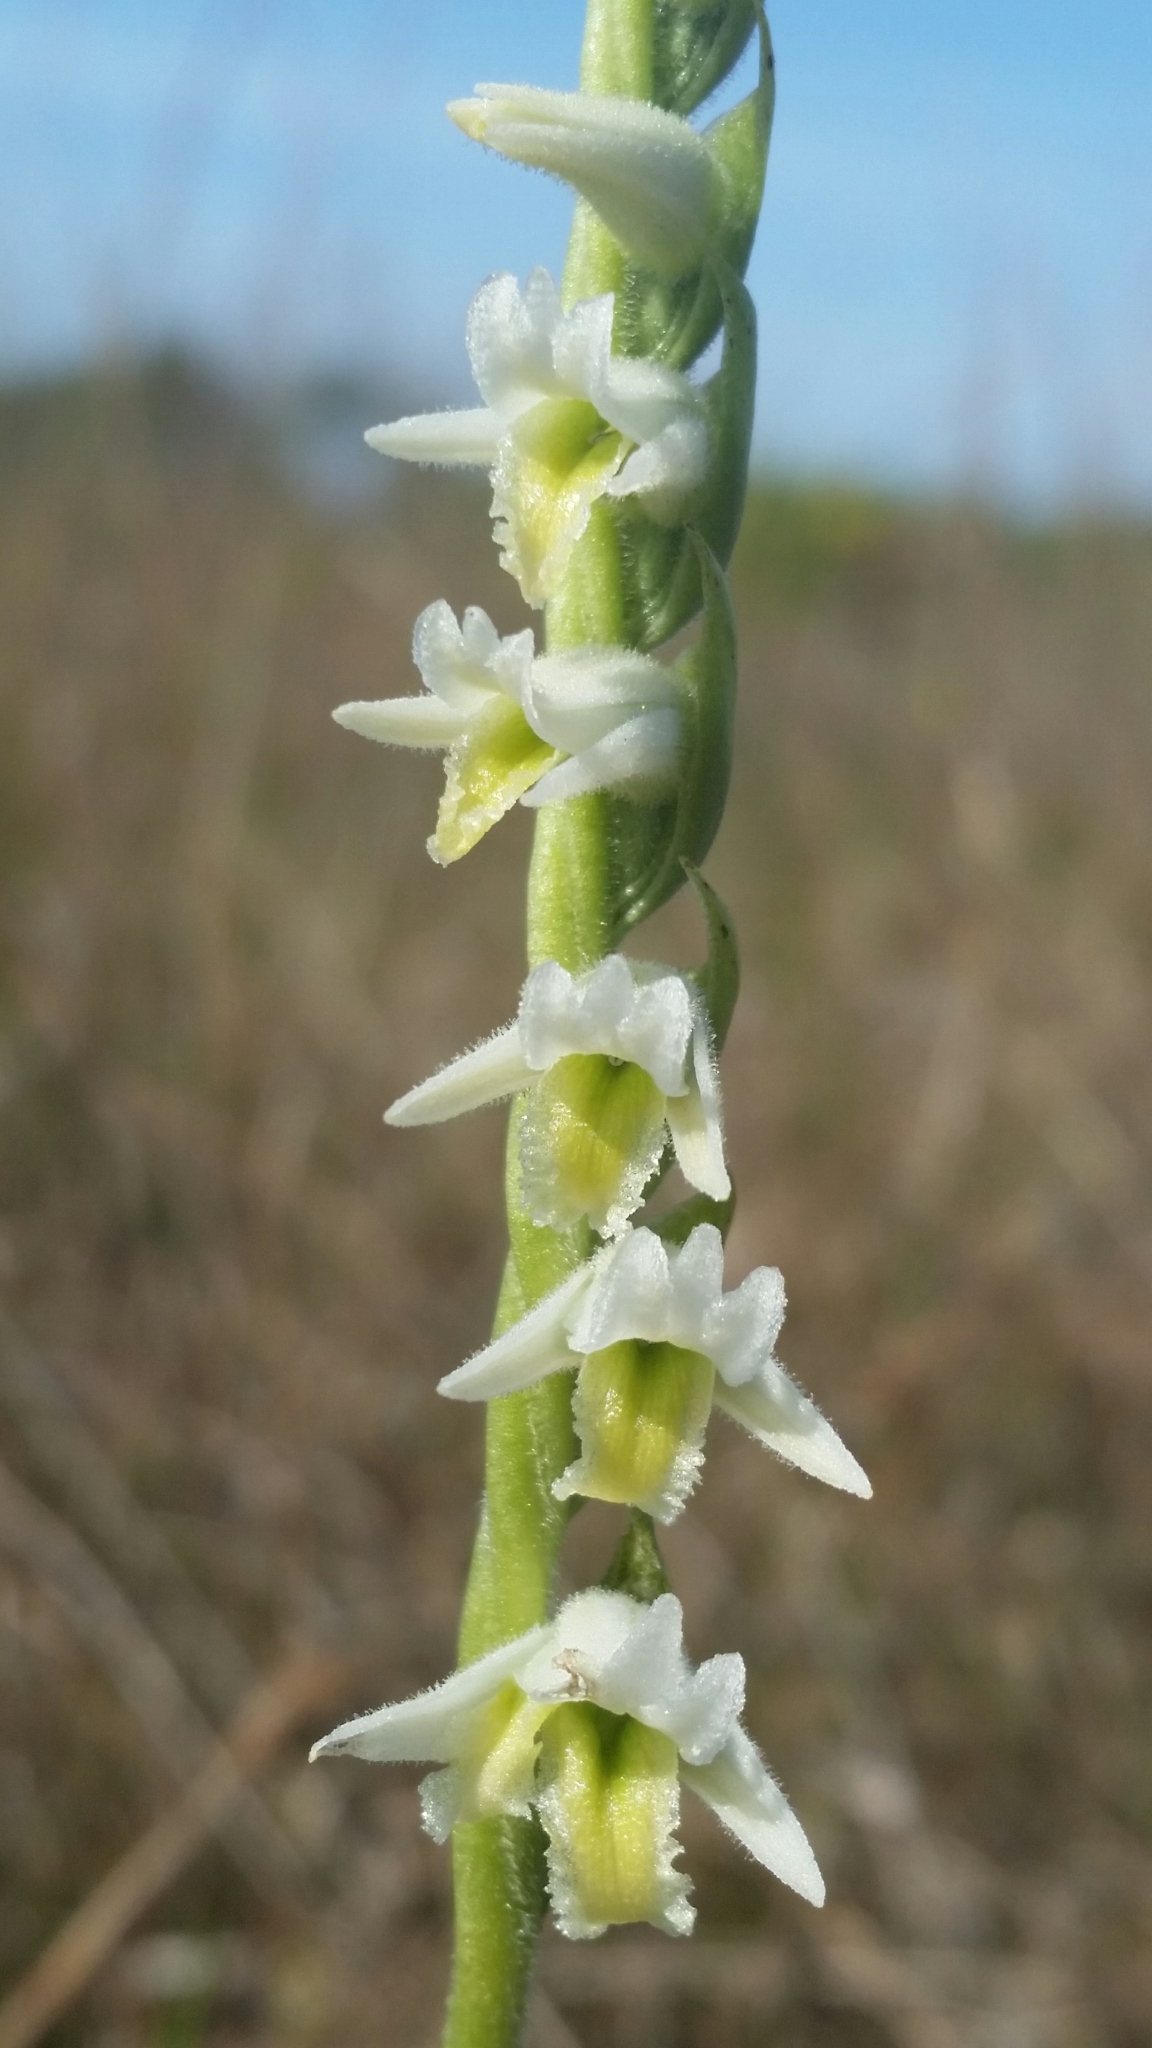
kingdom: Plantae
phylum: Tracheophyta
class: Liliopsida
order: Asparagales
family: Orchidaceae
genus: Spiranthes
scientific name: Spiranthes longilabris
